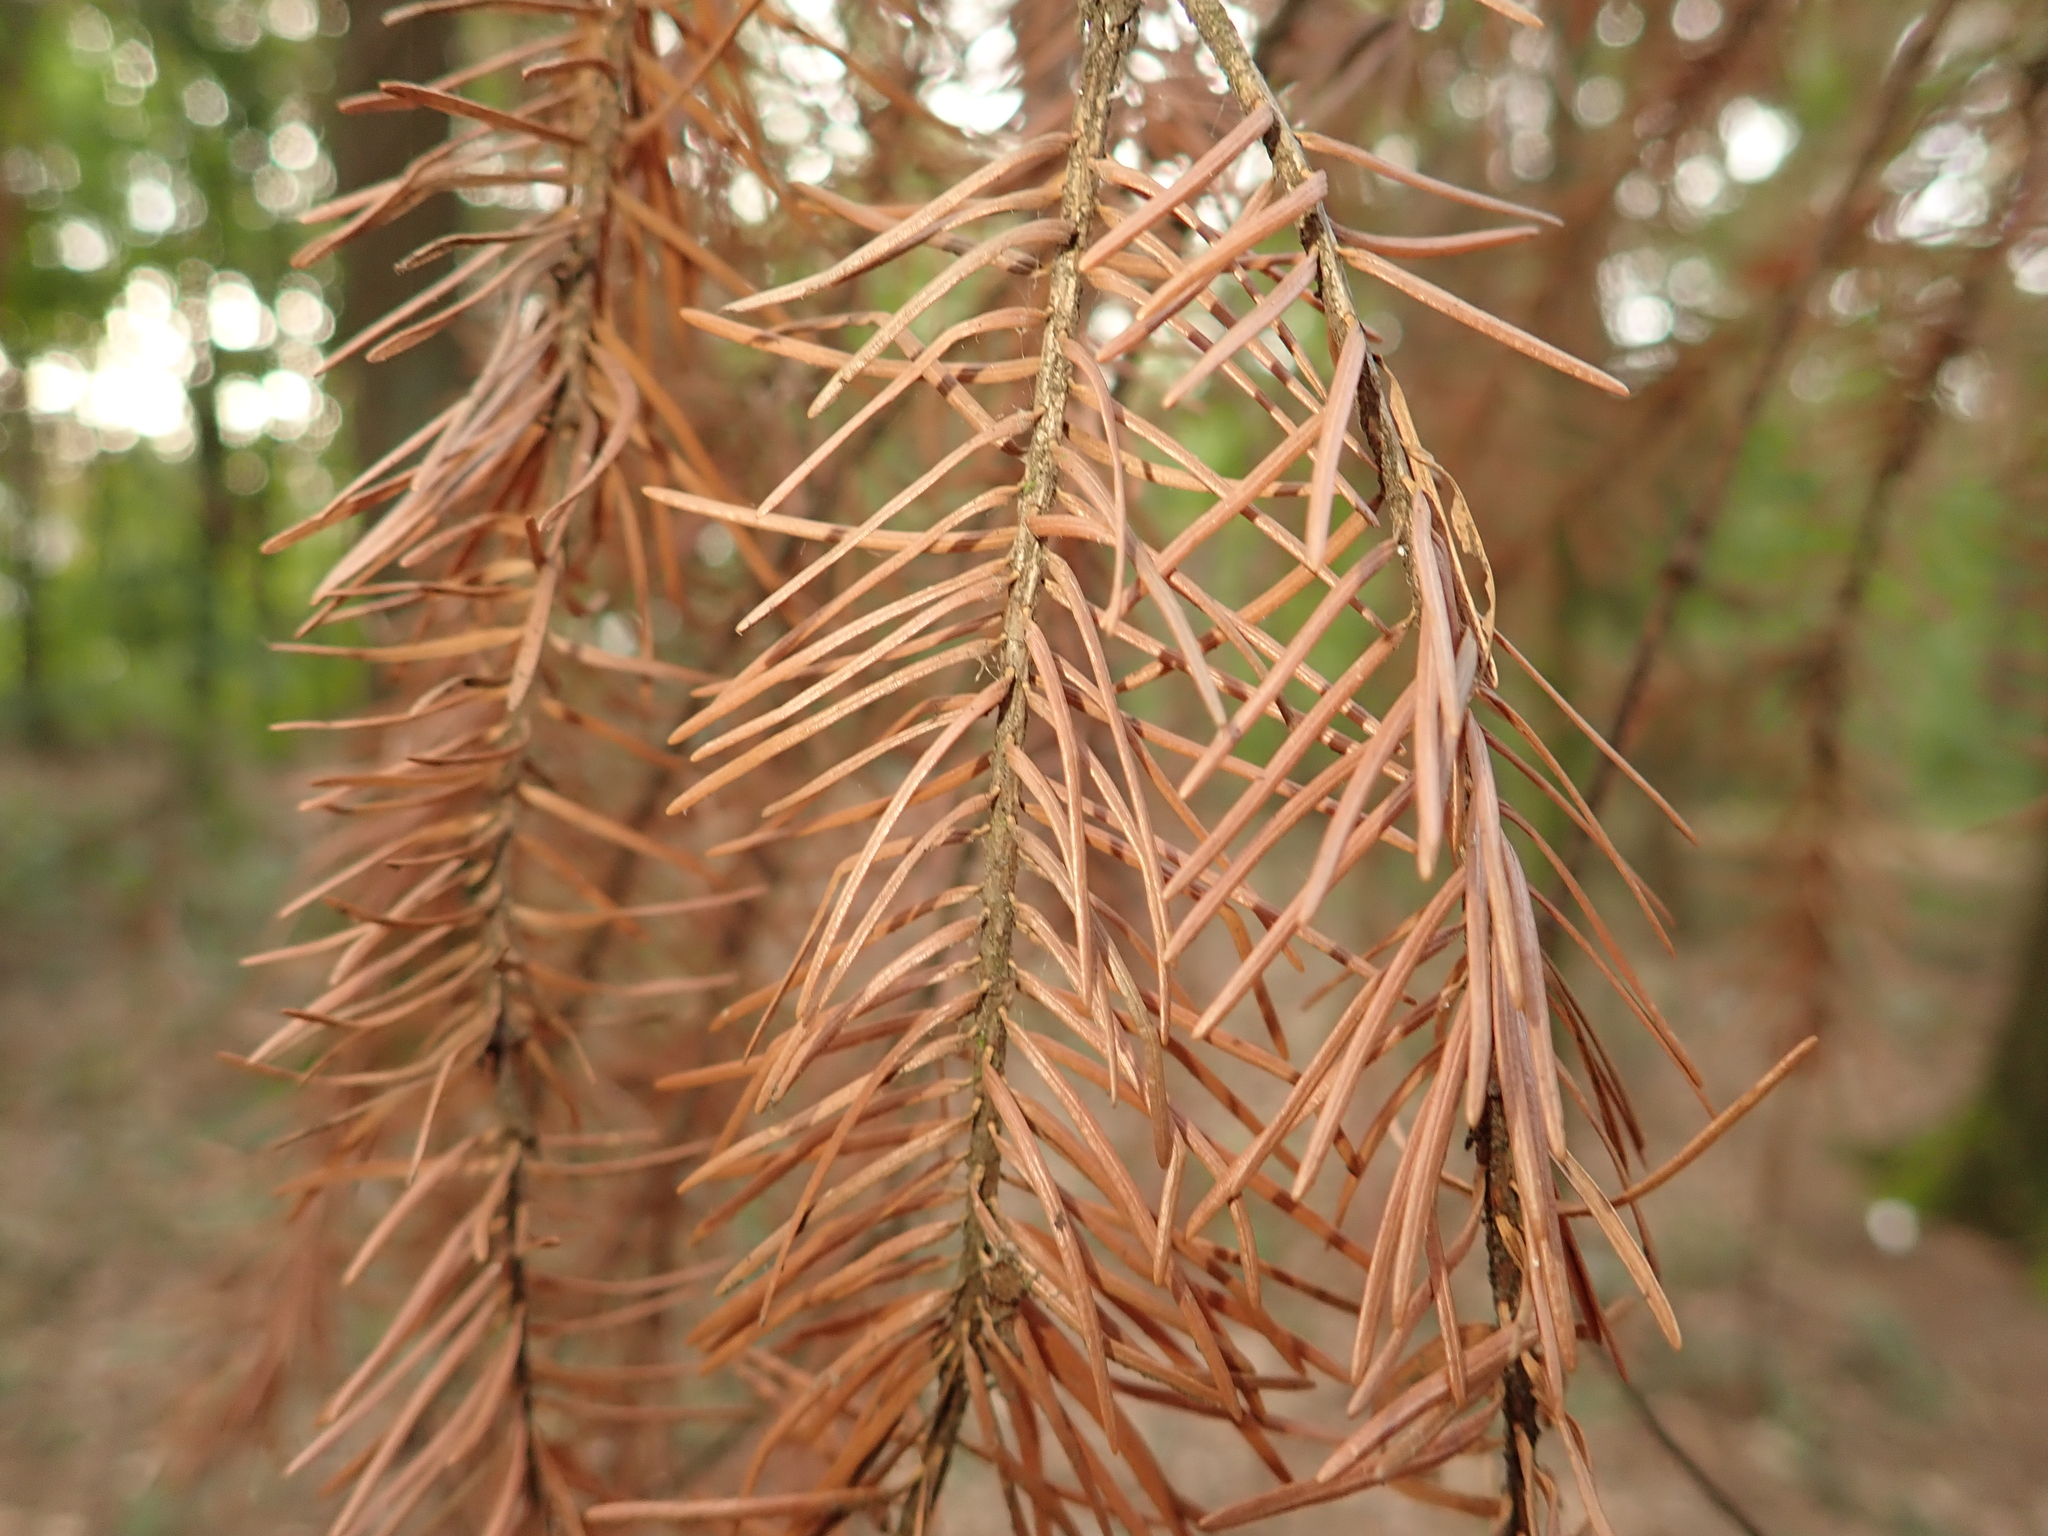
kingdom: Plantae
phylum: Tracheophyta
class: Pinopsida
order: Pinales
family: Pinaceae
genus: Picea
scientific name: Picea abies
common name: Norway spruce
